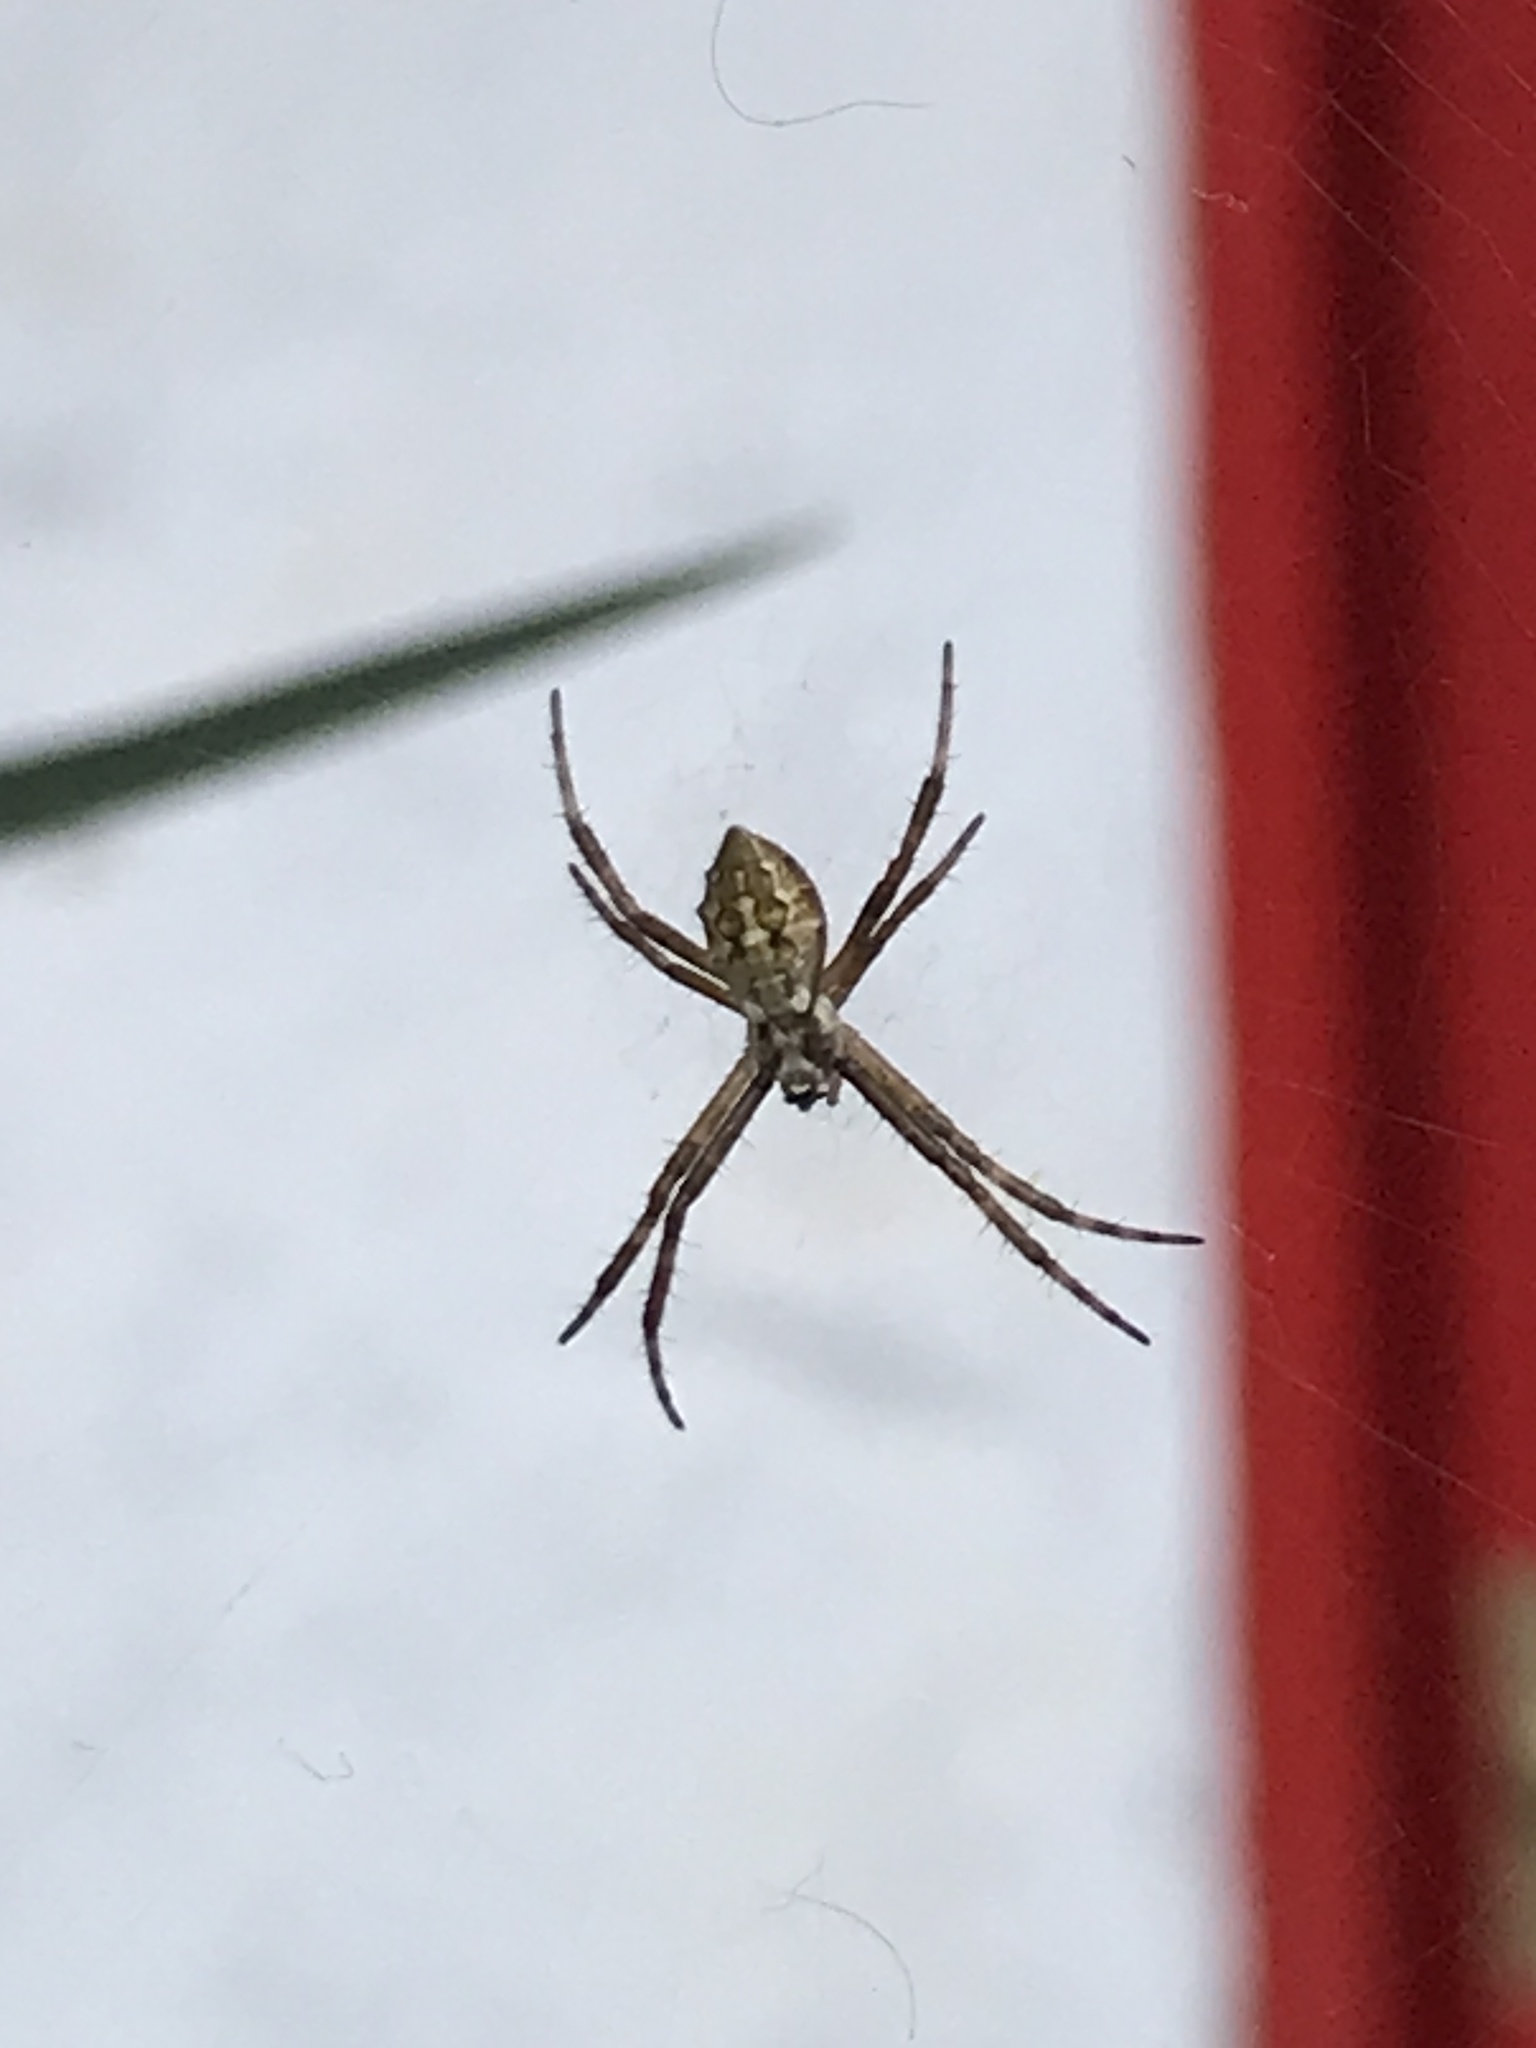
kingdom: Animalia
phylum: Arthropoda
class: Arachnida
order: Araneae
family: Araneidae
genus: Argiope
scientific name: Argiope argentata
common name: Orb weavers
